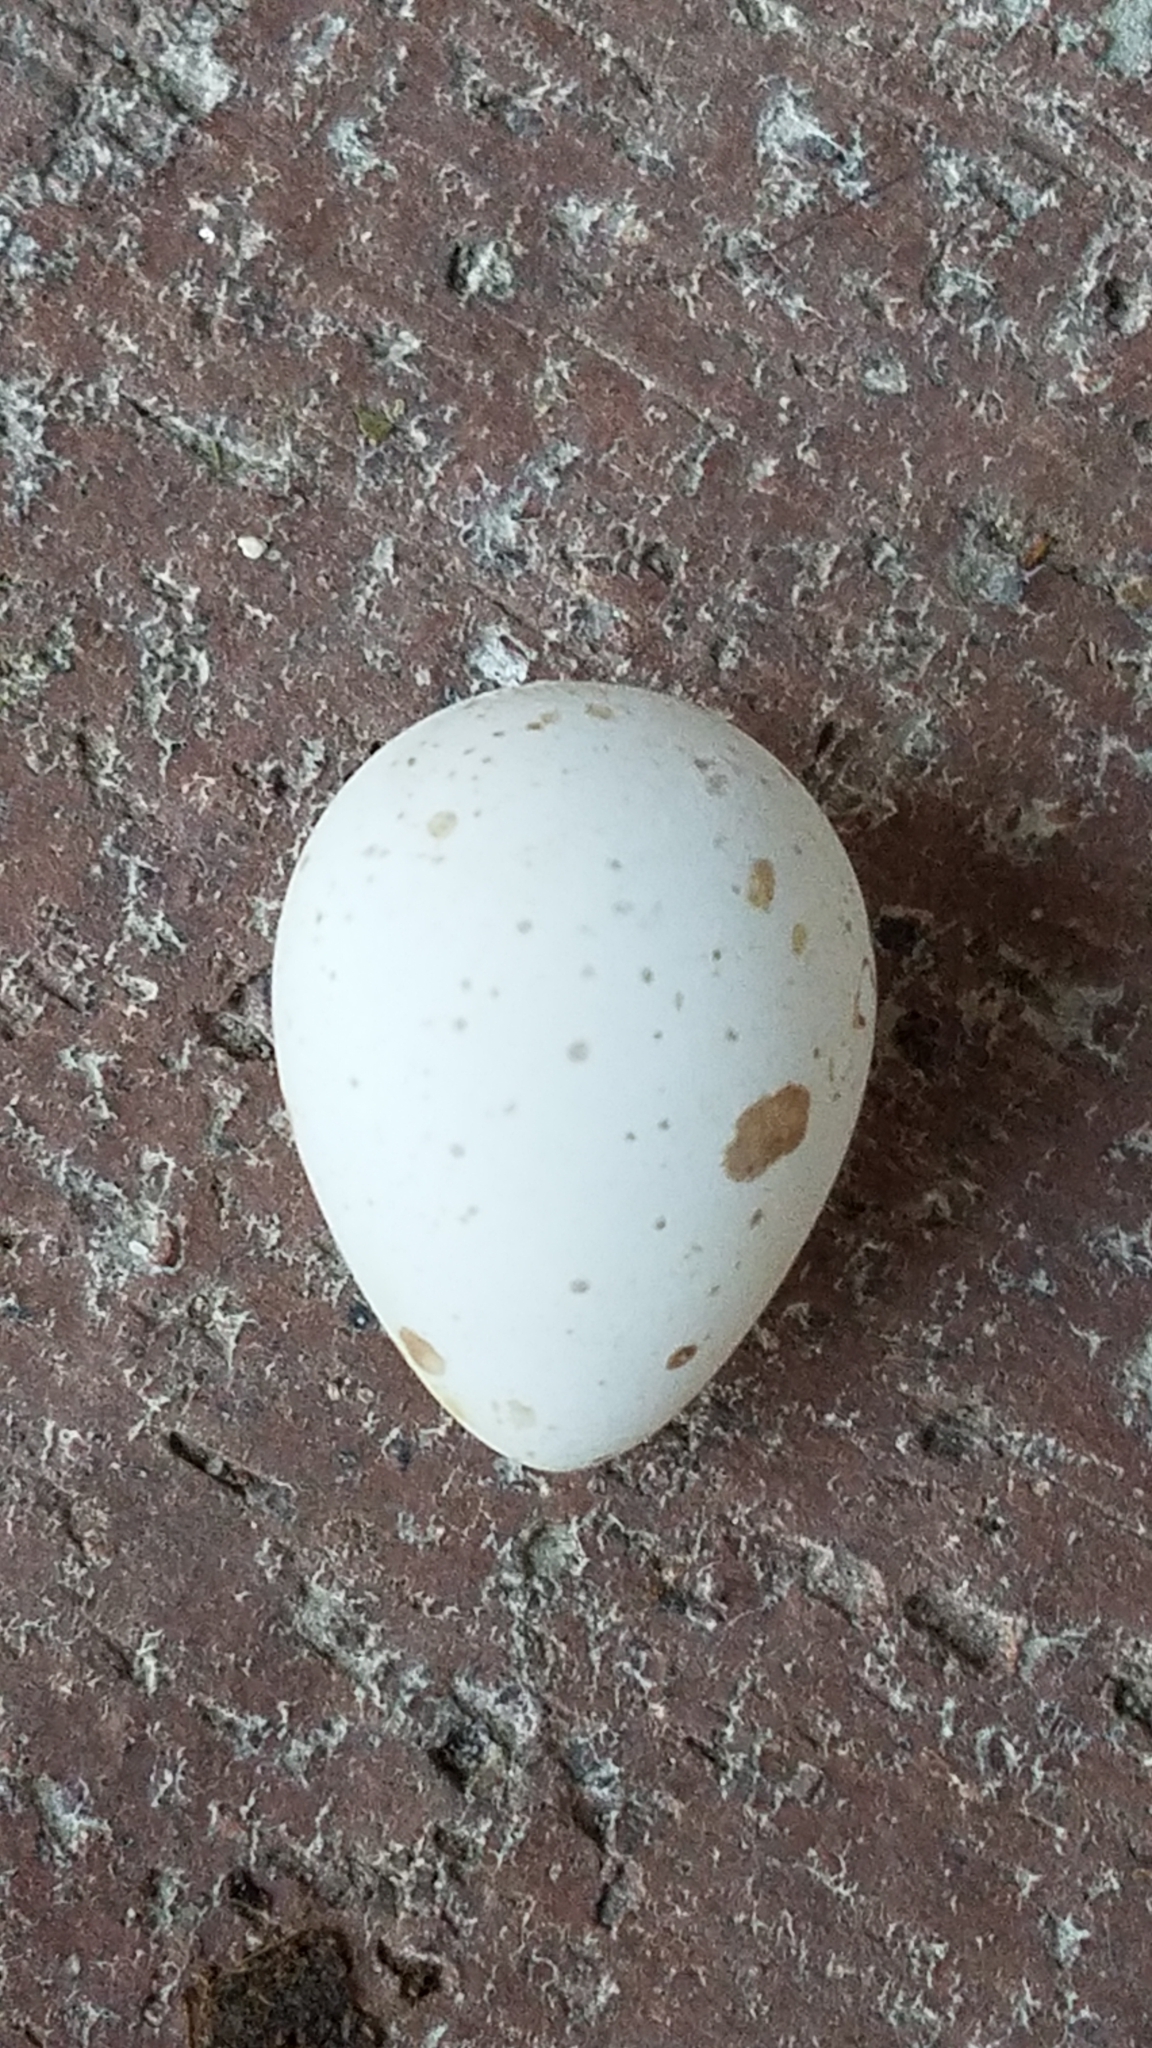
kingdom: Animalia
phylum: Chordata
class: Aves
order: Galliformes
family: Odontophoridae
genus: Callipepla
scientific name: Callipepla californica
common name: California quail
